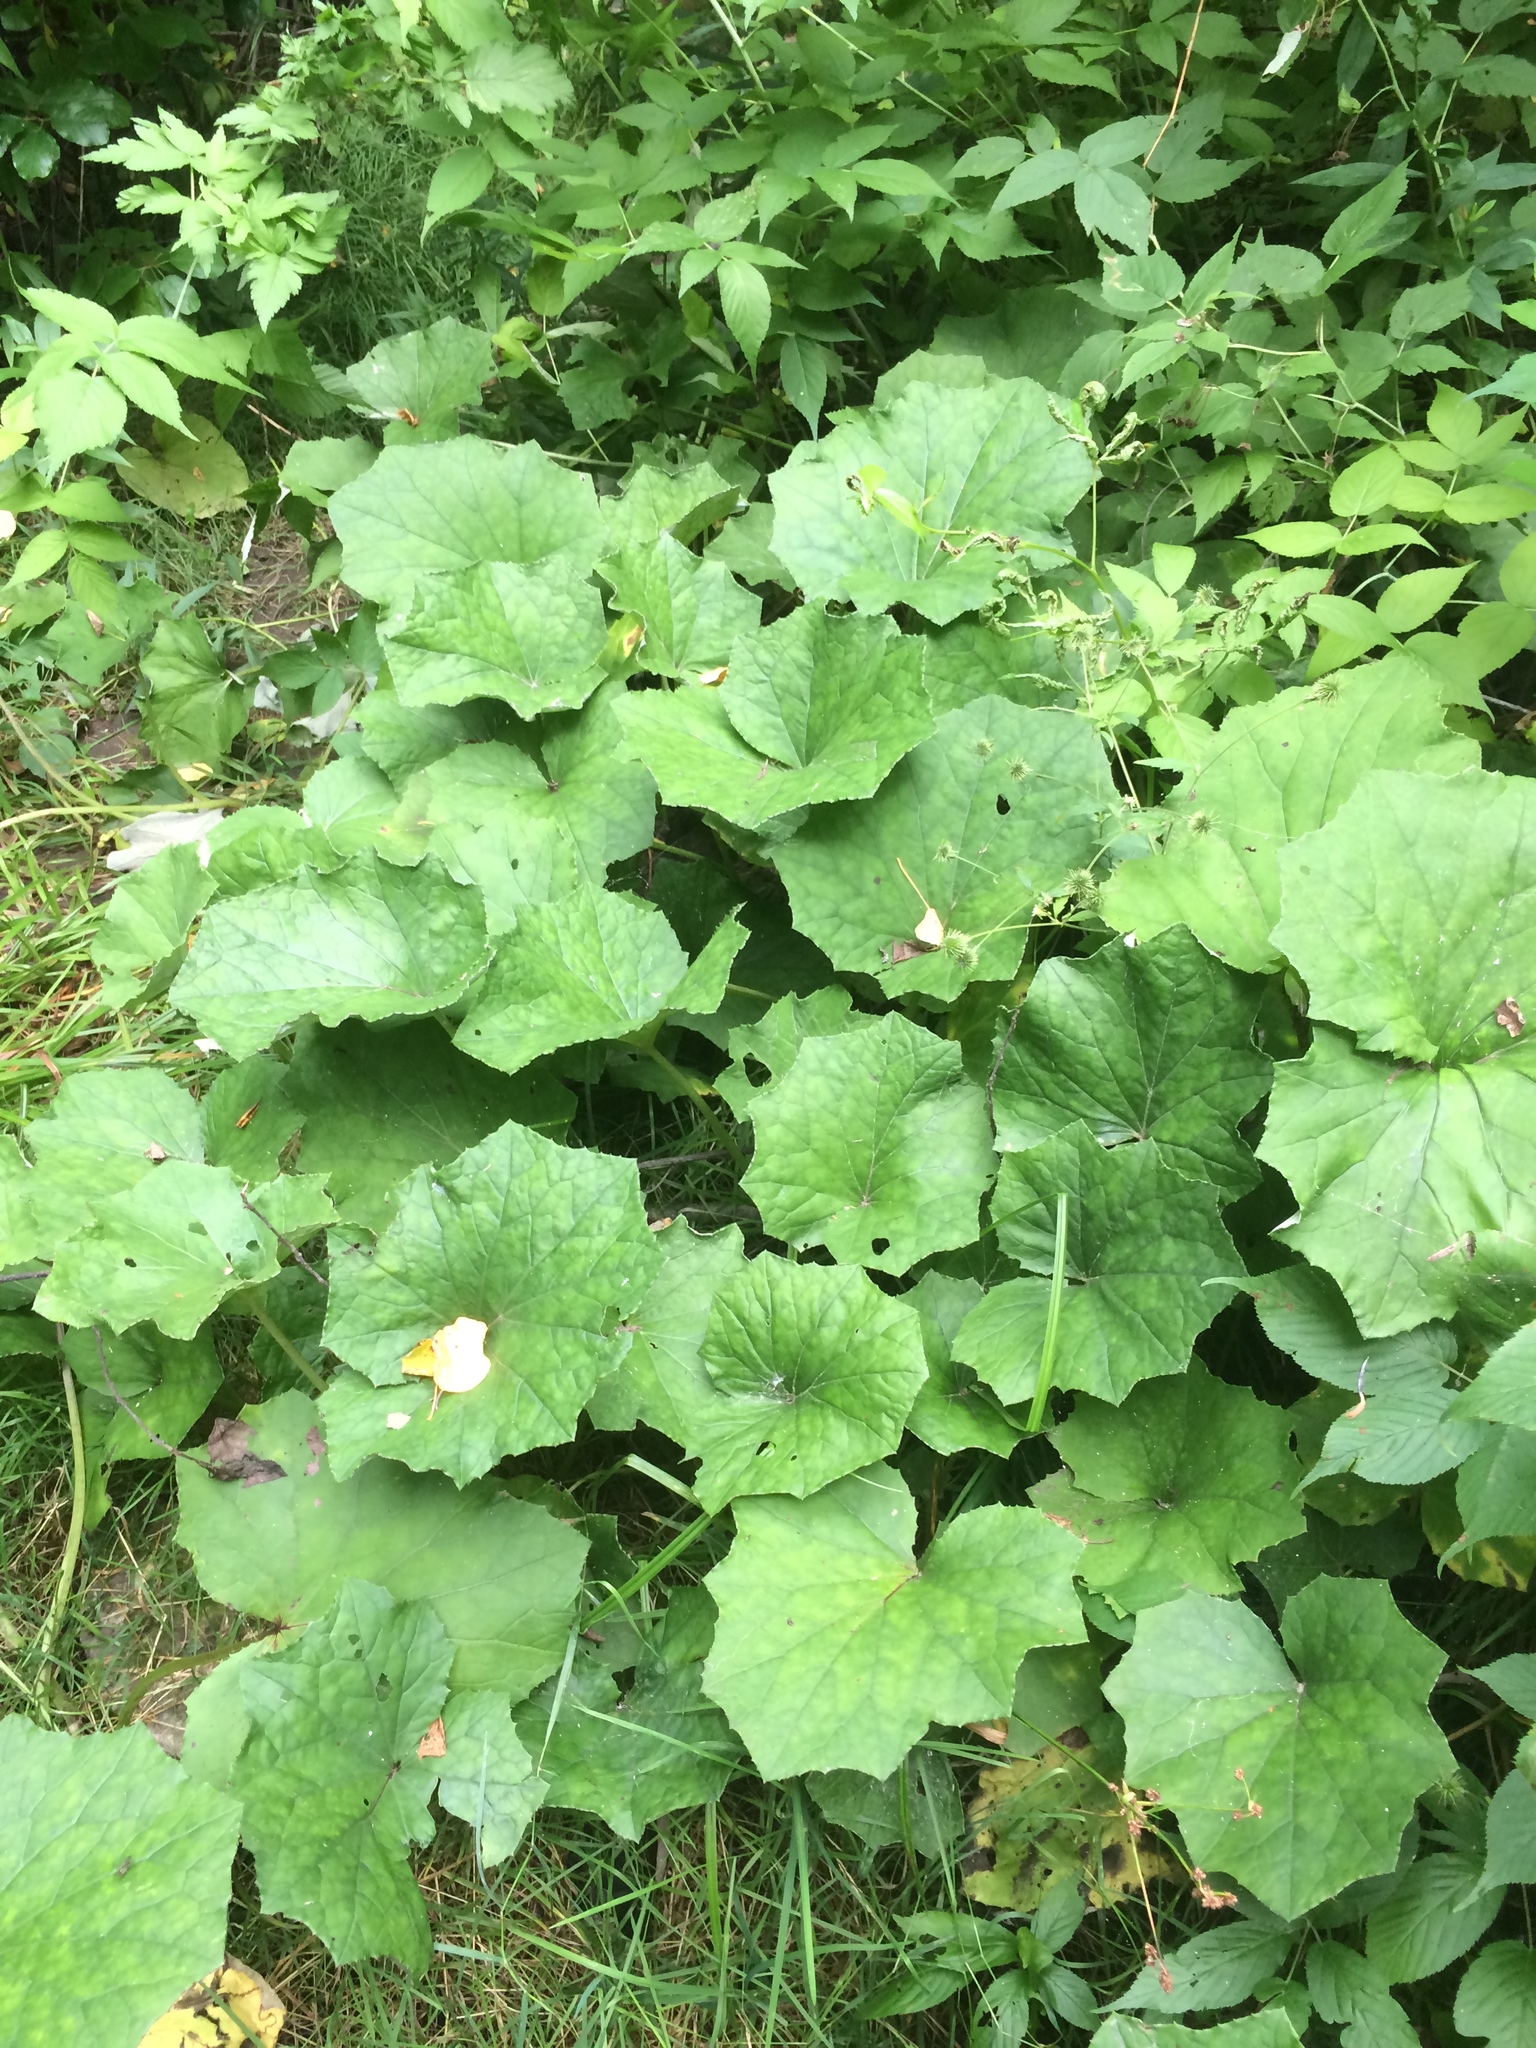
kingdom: Plantae
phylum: Tracheophyta
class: Magnoliopsida
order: Asterales
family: Asteraceae
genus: Tussilago
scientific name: Tussilago farfara
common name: Coltsfoot
